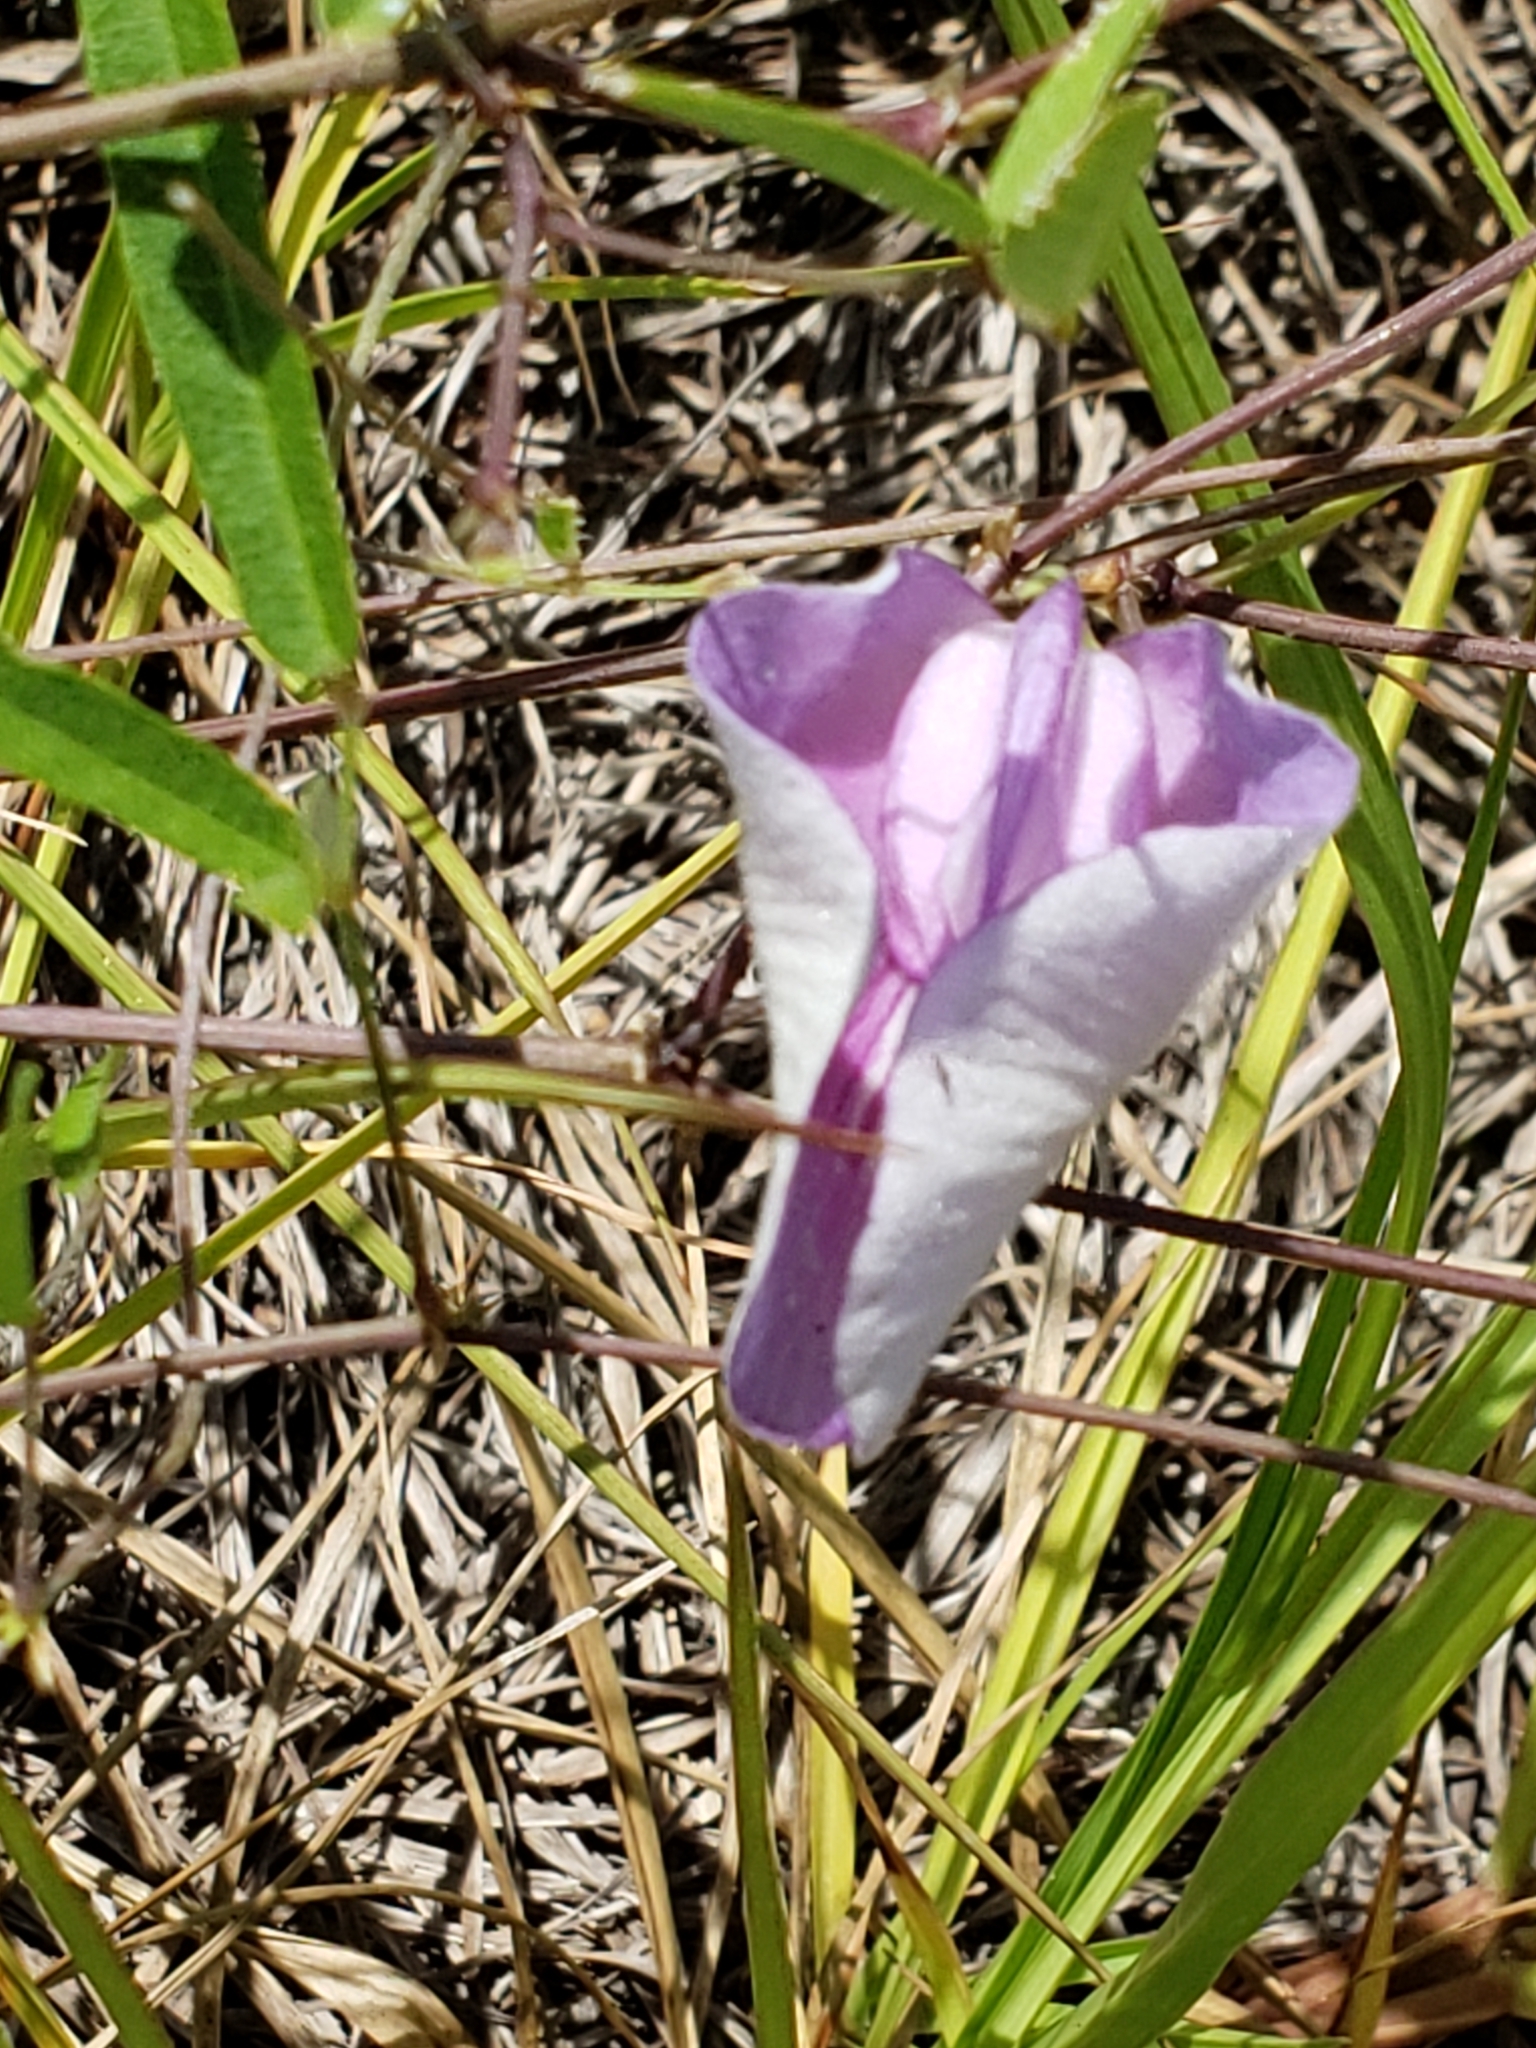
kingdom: Plantae
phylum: Tracheophyta
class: Magnoliopsida
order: Fabales
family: Fabaceae
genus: Centrosema
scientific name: Centrosema virginianum
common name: Butterfly-pea
